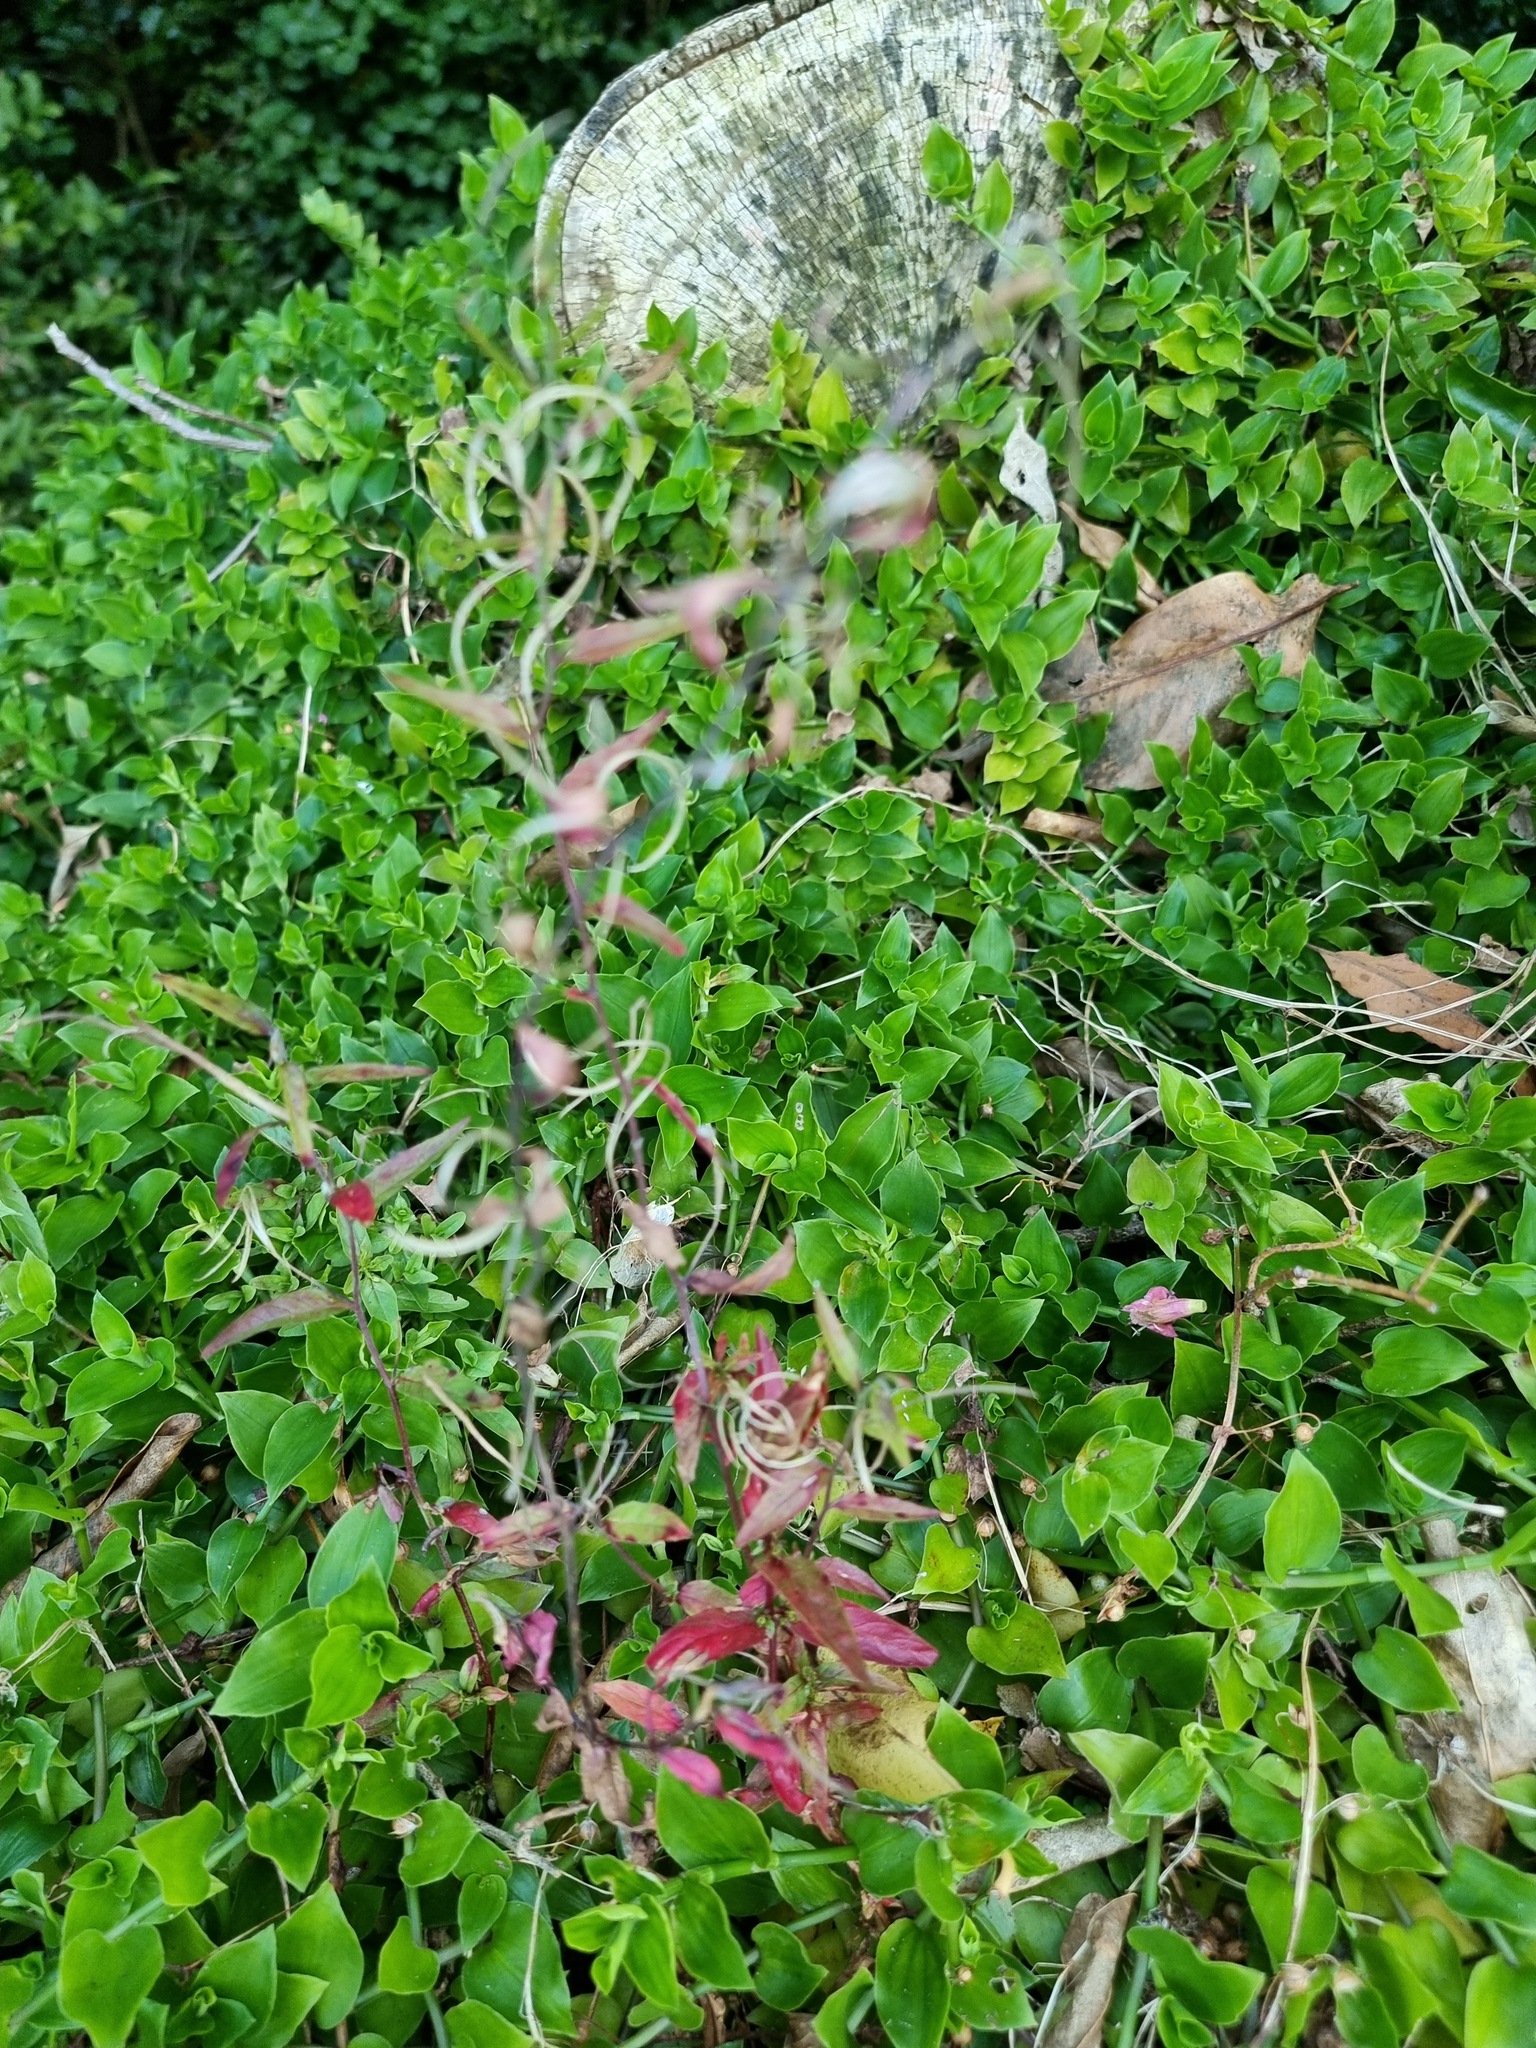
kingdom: Plantae
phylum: Tracheophyta
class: Liliopsida
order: Commelinales
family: Commelinaceae
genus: Tradescantia
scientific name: Tradescantia fluminensis
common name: Wandering-jew
